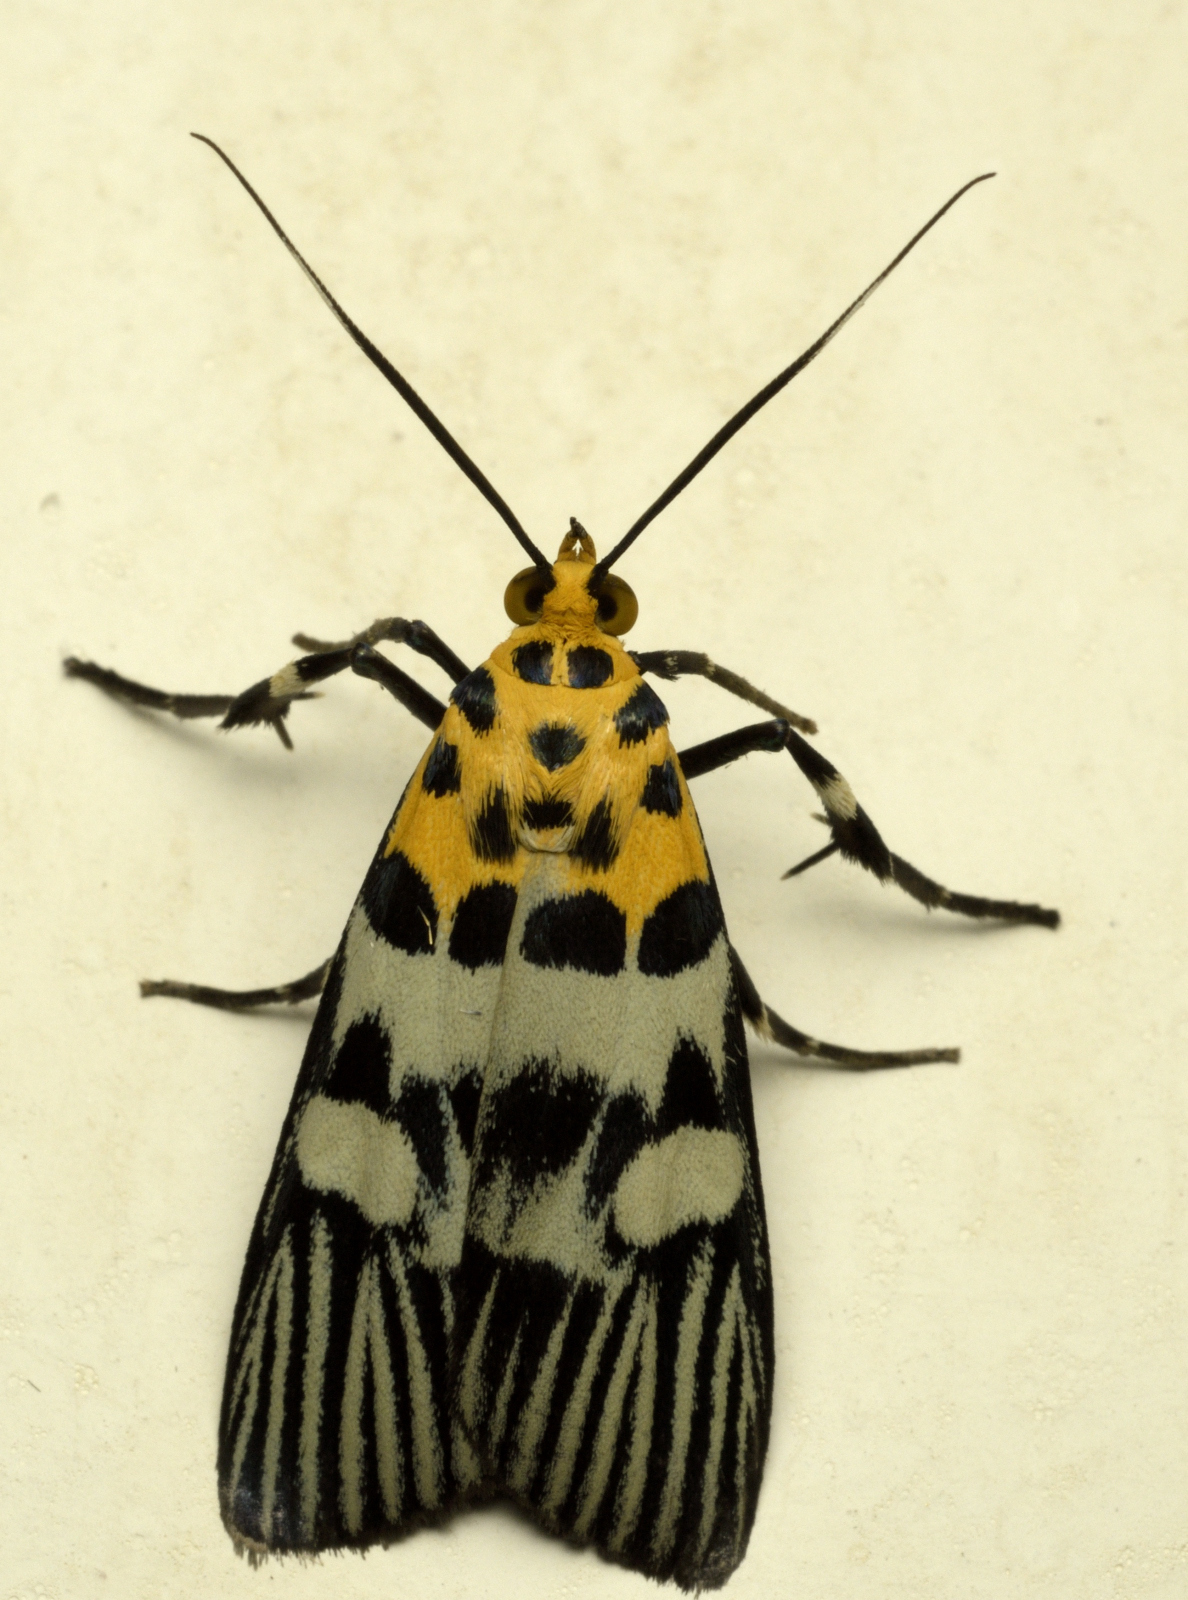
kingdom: Animalia
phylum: Arthropoda
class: Insecta
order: Lepidoptera
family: Pyralidae
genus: Vitessa
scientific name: Vitessa suradeva
